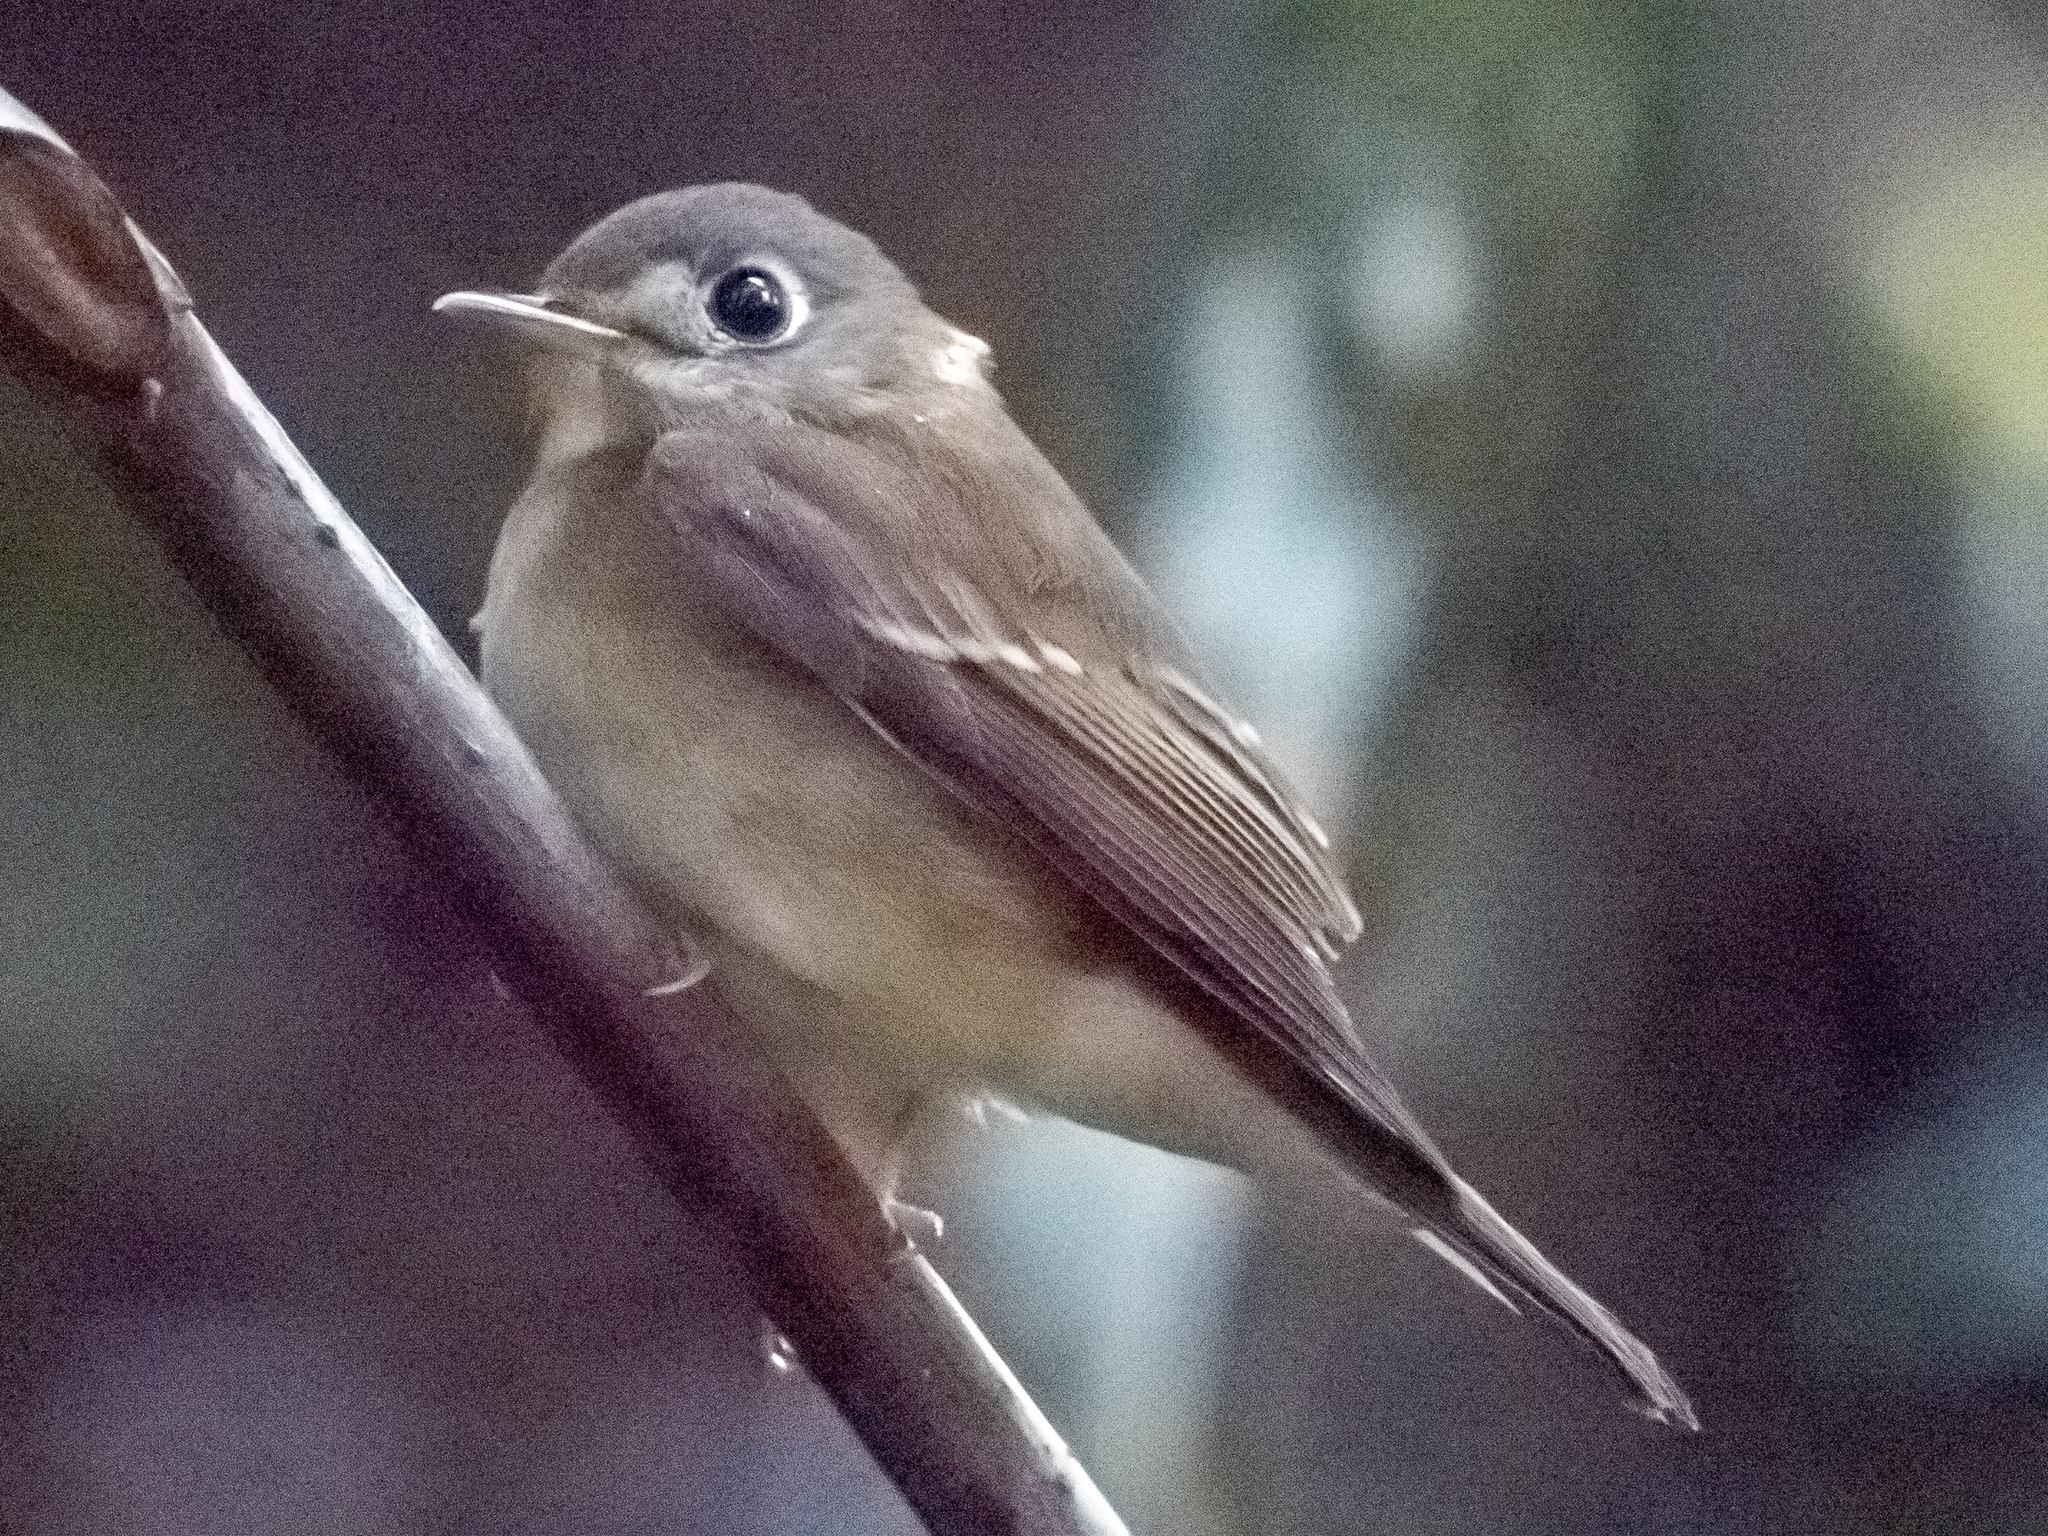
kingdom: Animalia
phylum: Chordata
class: Aves
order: Passeriformes
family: Muscicapidae
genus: Muscicapa
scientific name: Muscicapa muttui
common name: Brown-breasted flycatcher
